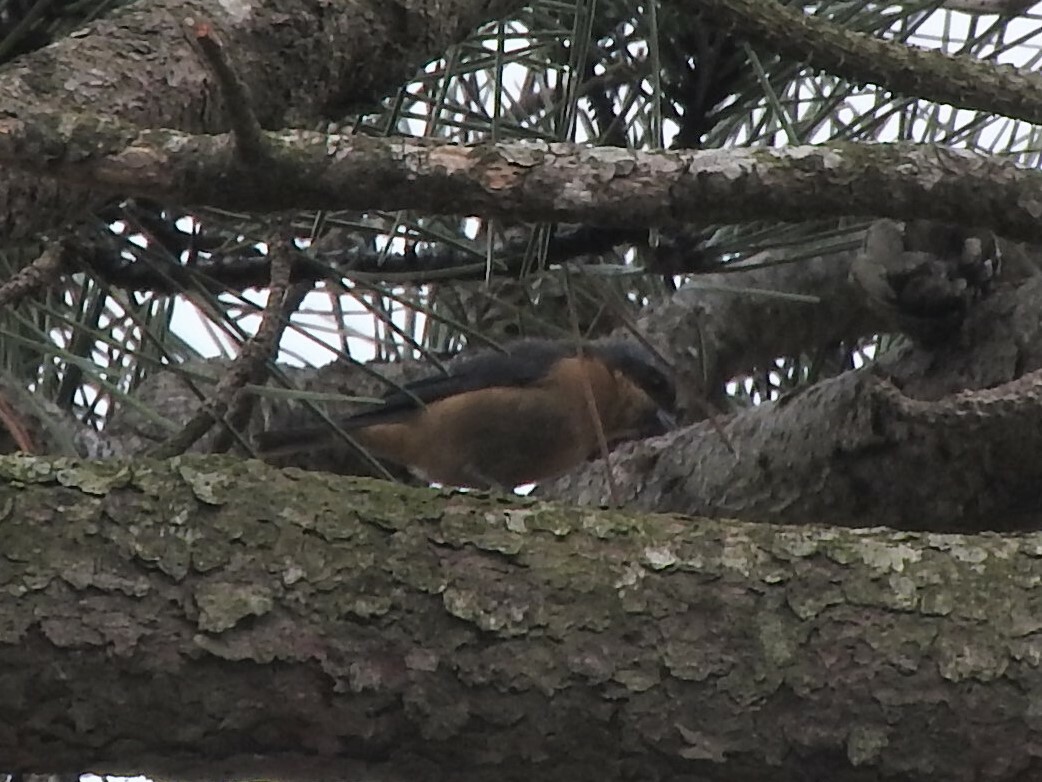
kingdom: Animalia
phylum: Chordata
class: Aves
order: Passeriformes
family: Thraupidae
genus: Pipraeidea
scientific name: Pipraeidea melanonota
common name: Fawn-breasted tanager
